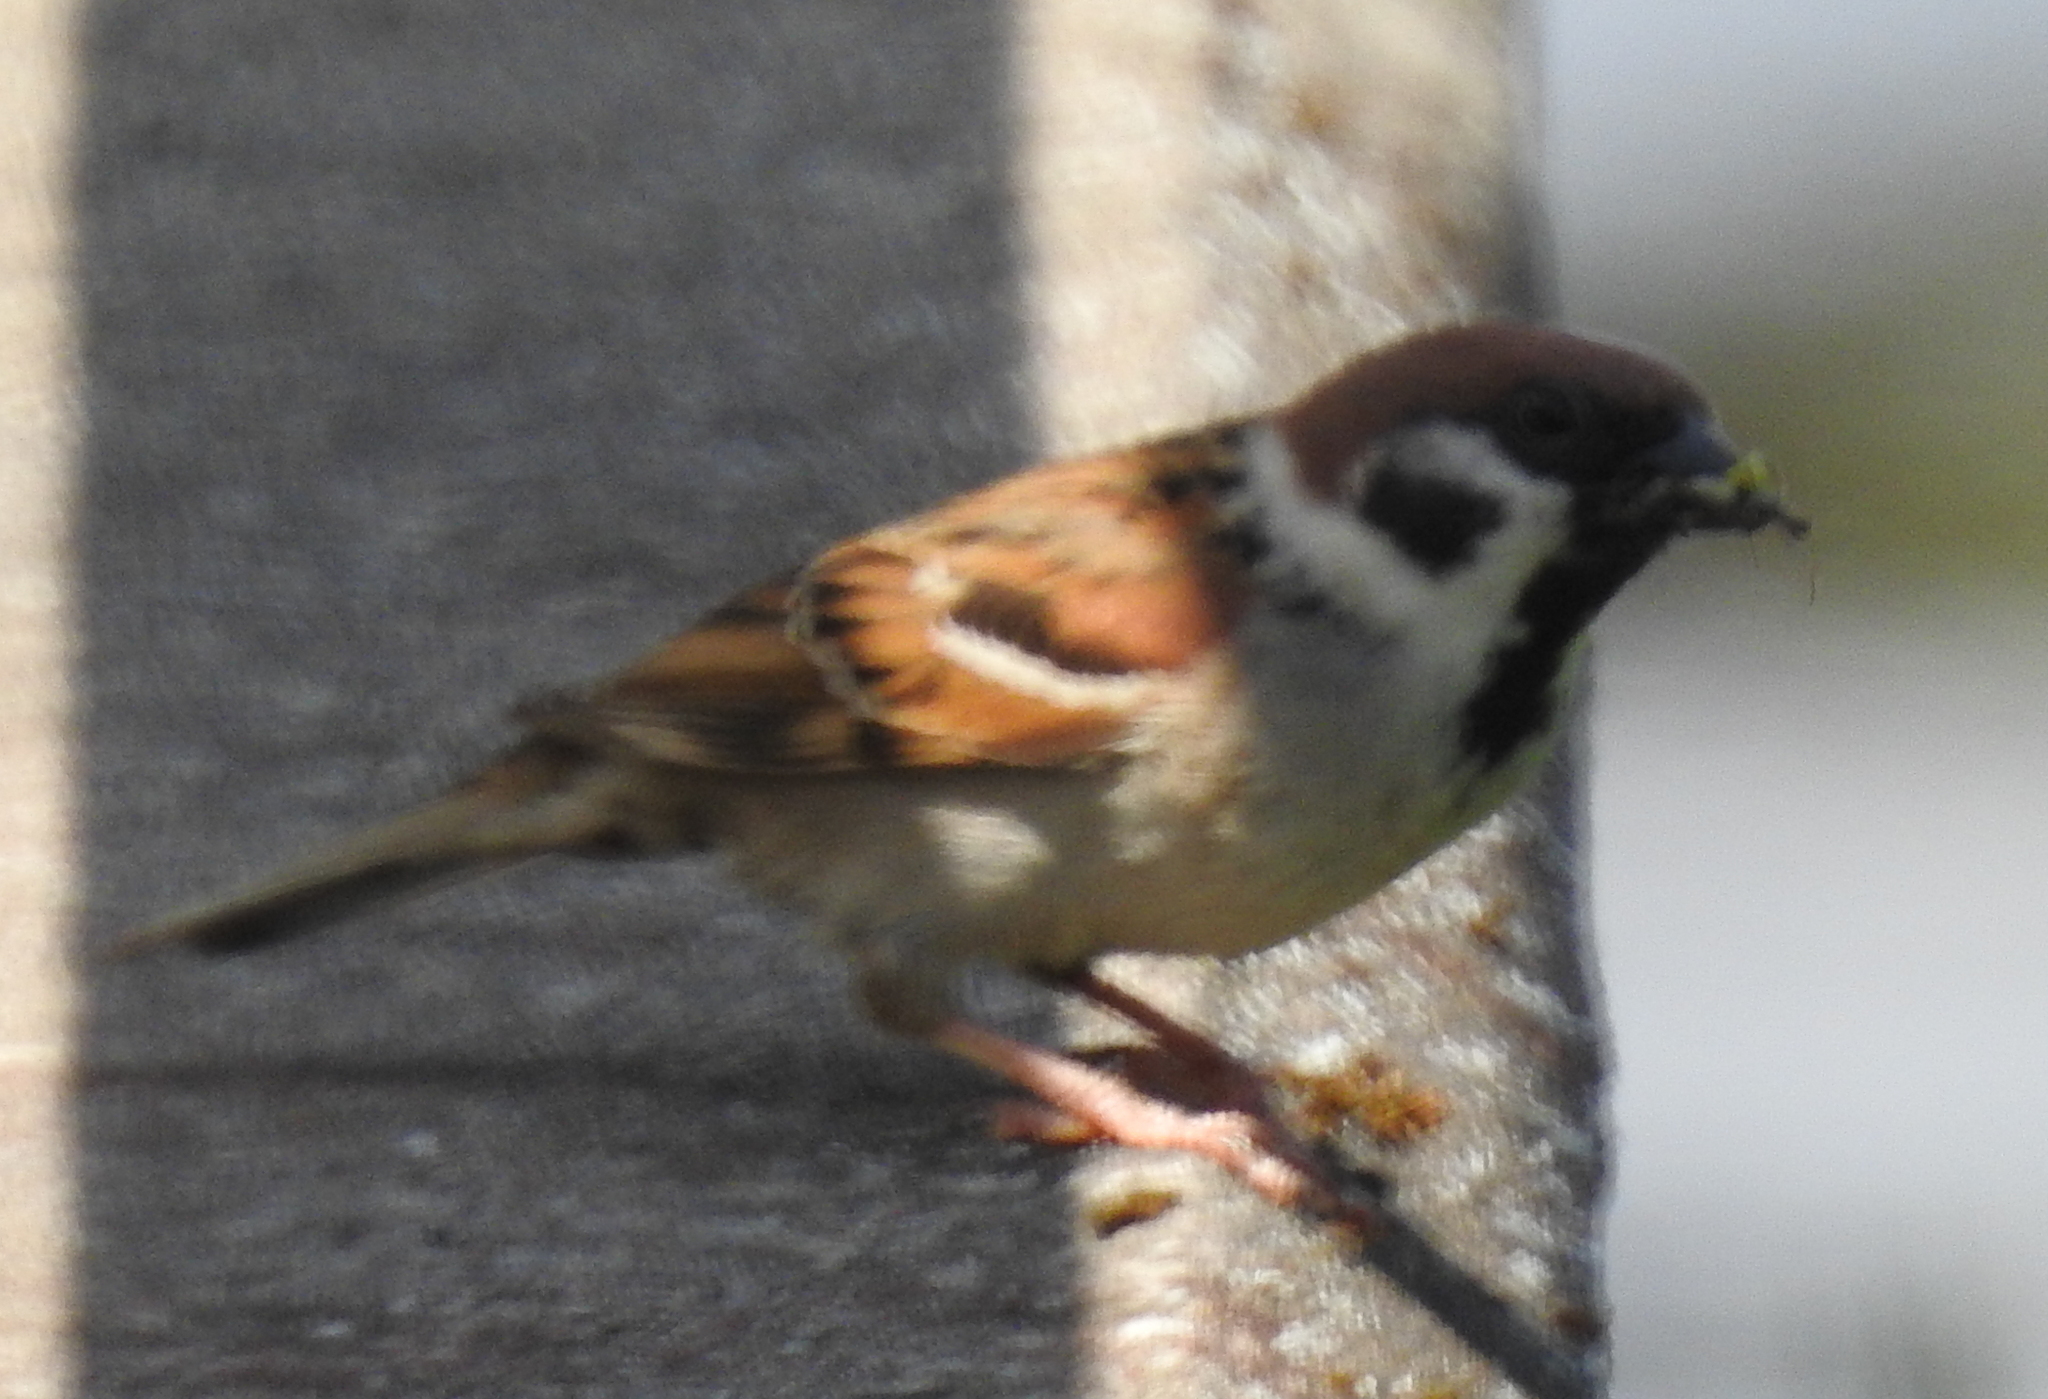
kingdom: Animalia
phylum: Chordata
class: Aves
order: Passeriformes
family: Passeridae
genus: Passer
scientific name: Passer montanus
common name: Eurasian tree sparrow
